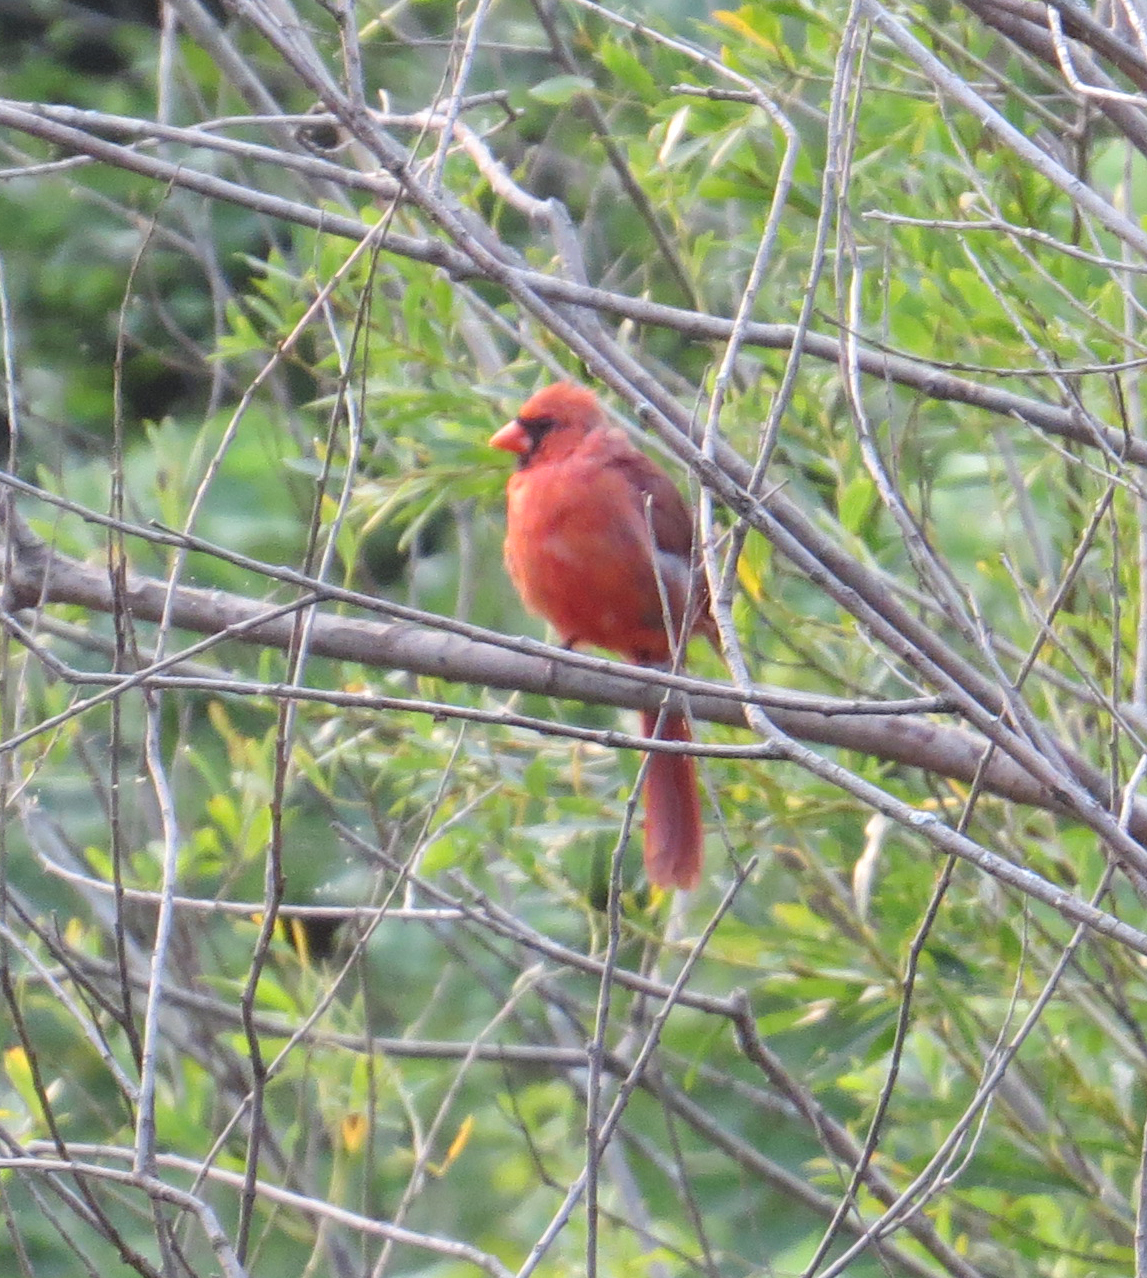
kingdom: Animalia
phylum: Chordata
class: Aves
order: Passeriformes
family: Cardinalidae
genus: Cardinalis
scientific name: Cardinalis cardinalis
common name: Northern cardinal
